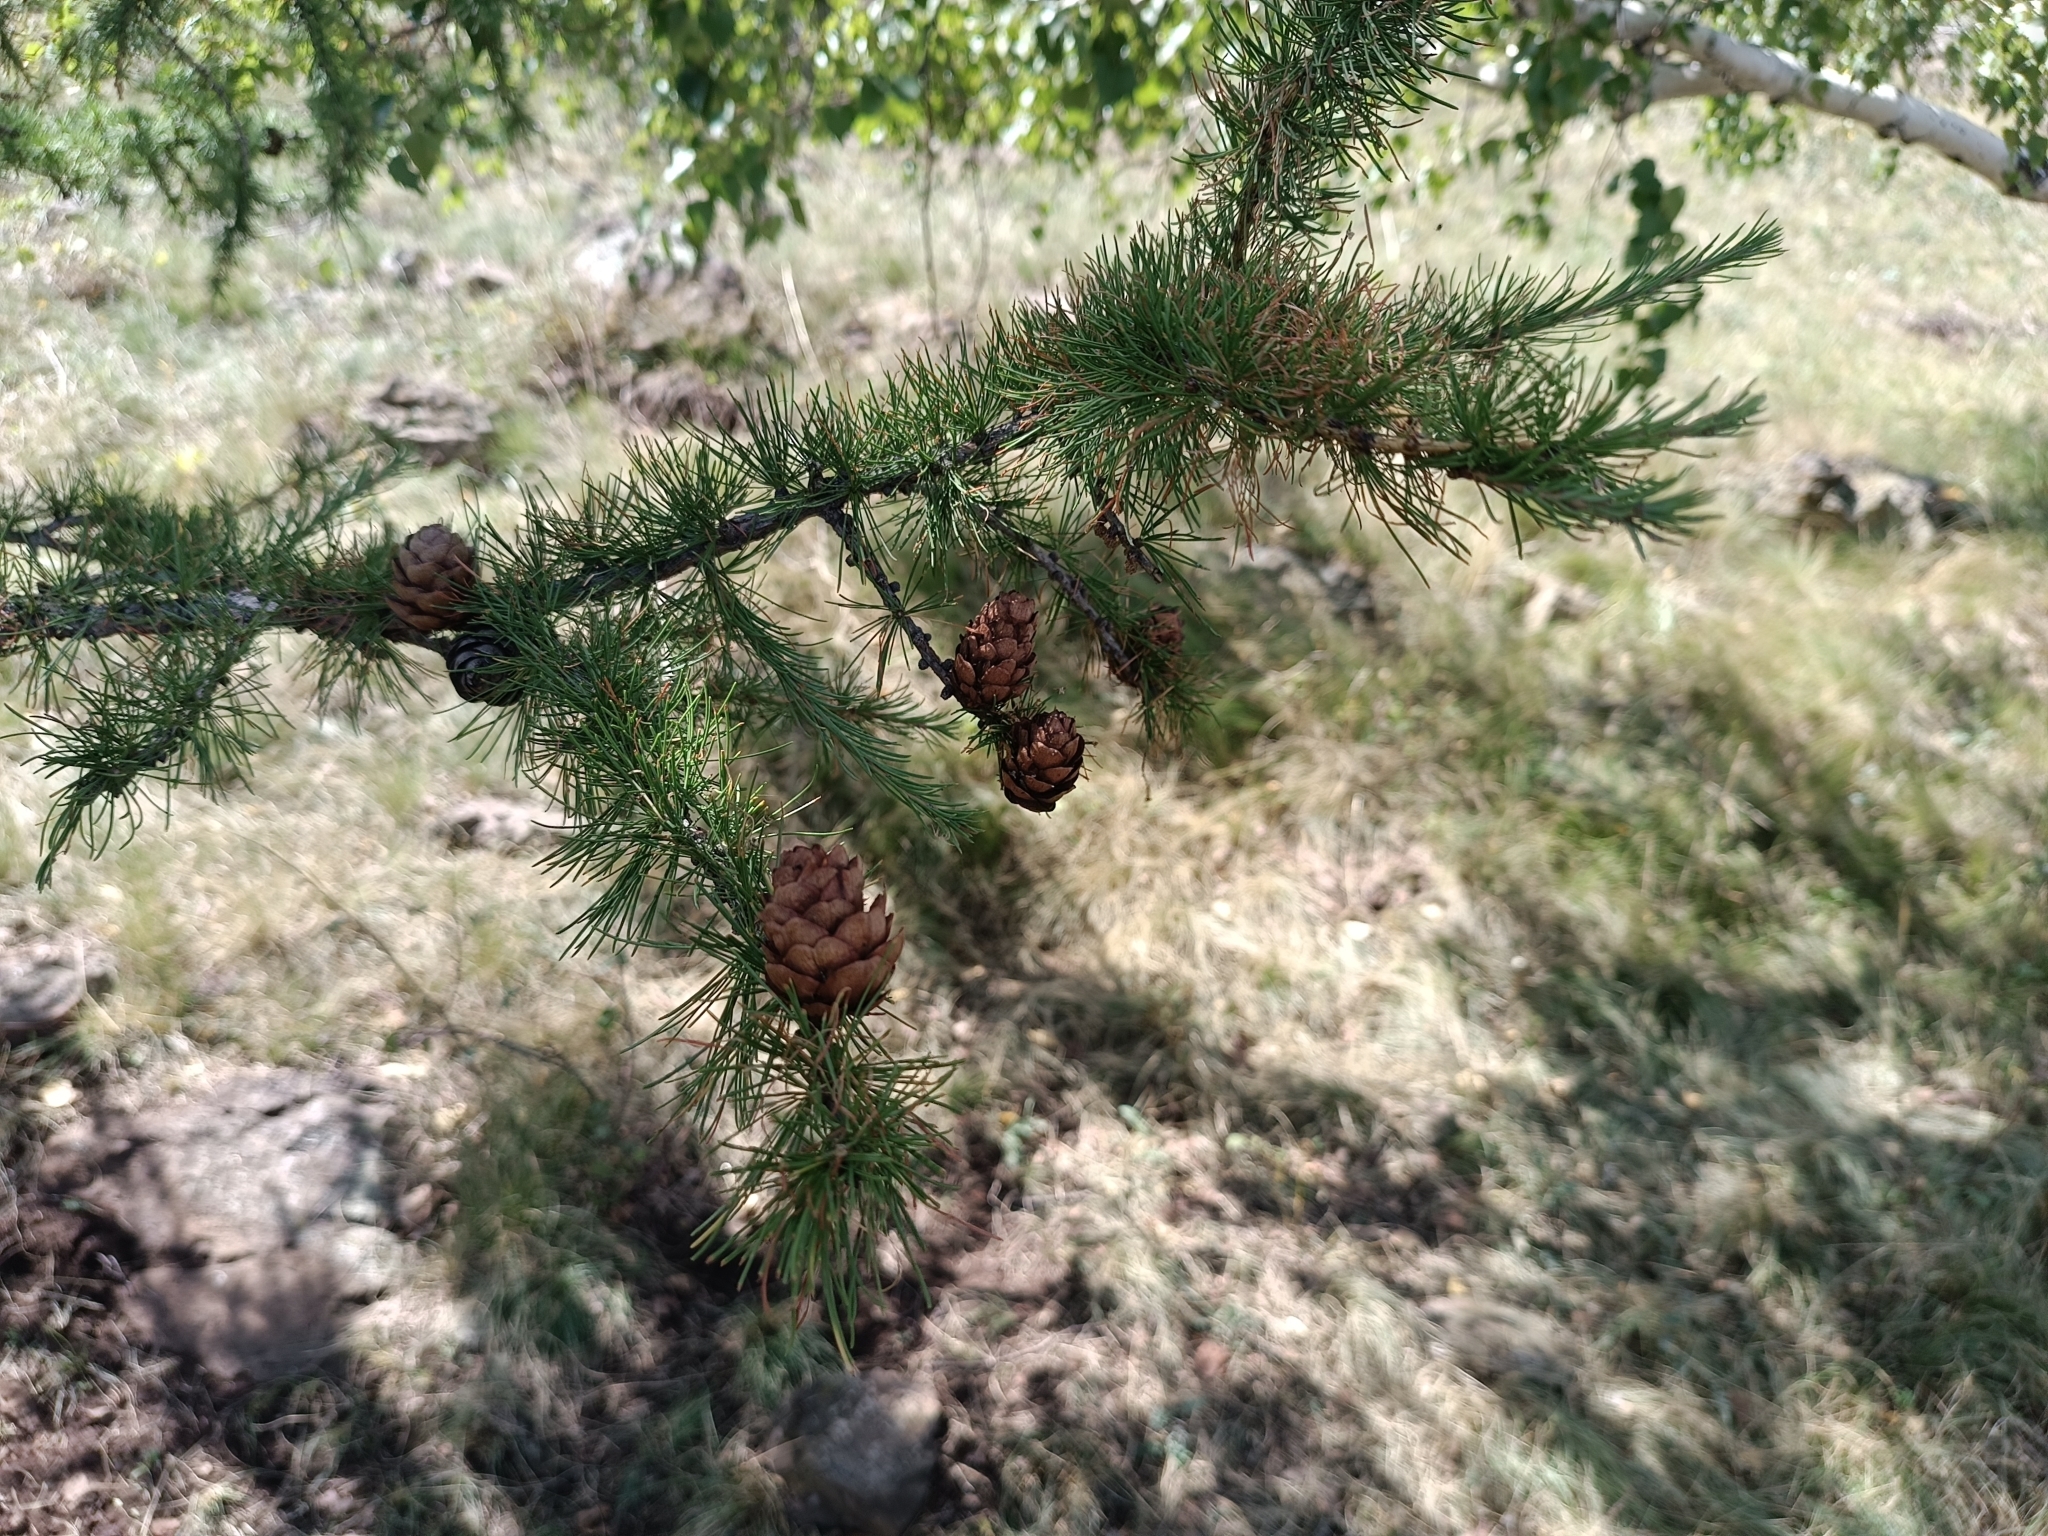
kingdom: Plantae
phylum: Tracheophyta
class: Pinopsida
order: Pinales
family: Pinaceae
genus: Larix
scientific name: Larix sibirica
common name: Siberian larch
